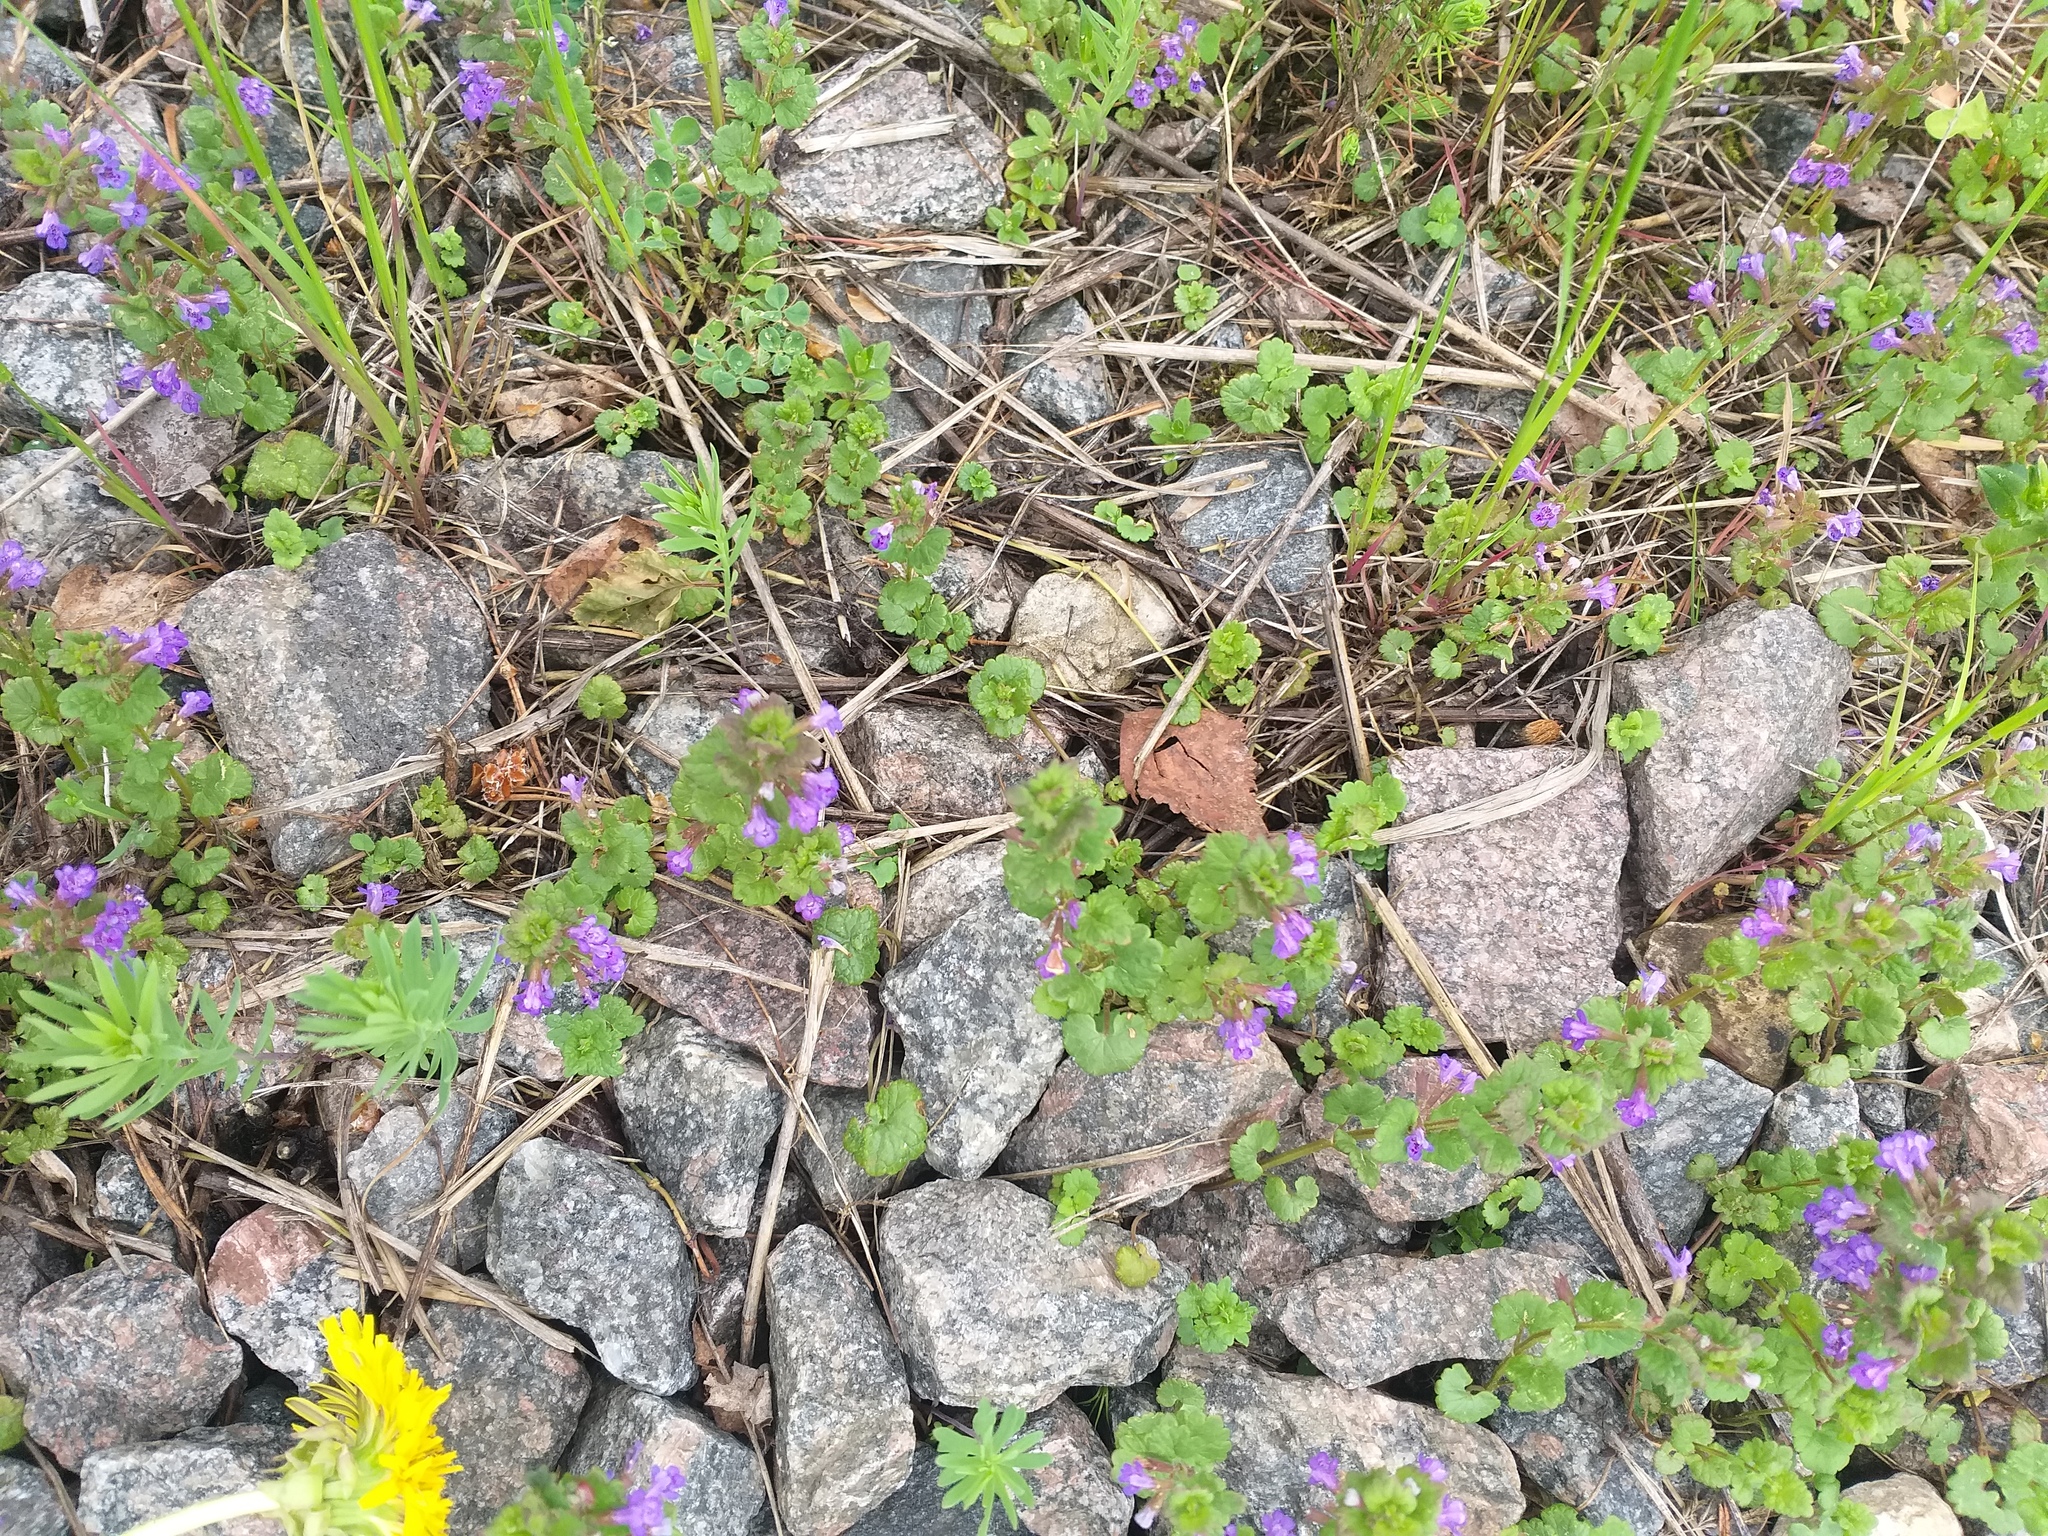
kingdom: Plantae
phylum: Tracheophyta
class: Magnoliopsida
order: Lamiales
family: Lamiaceae
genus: Glechoma
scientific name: Glechoma hederacea
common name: Ground ivy
